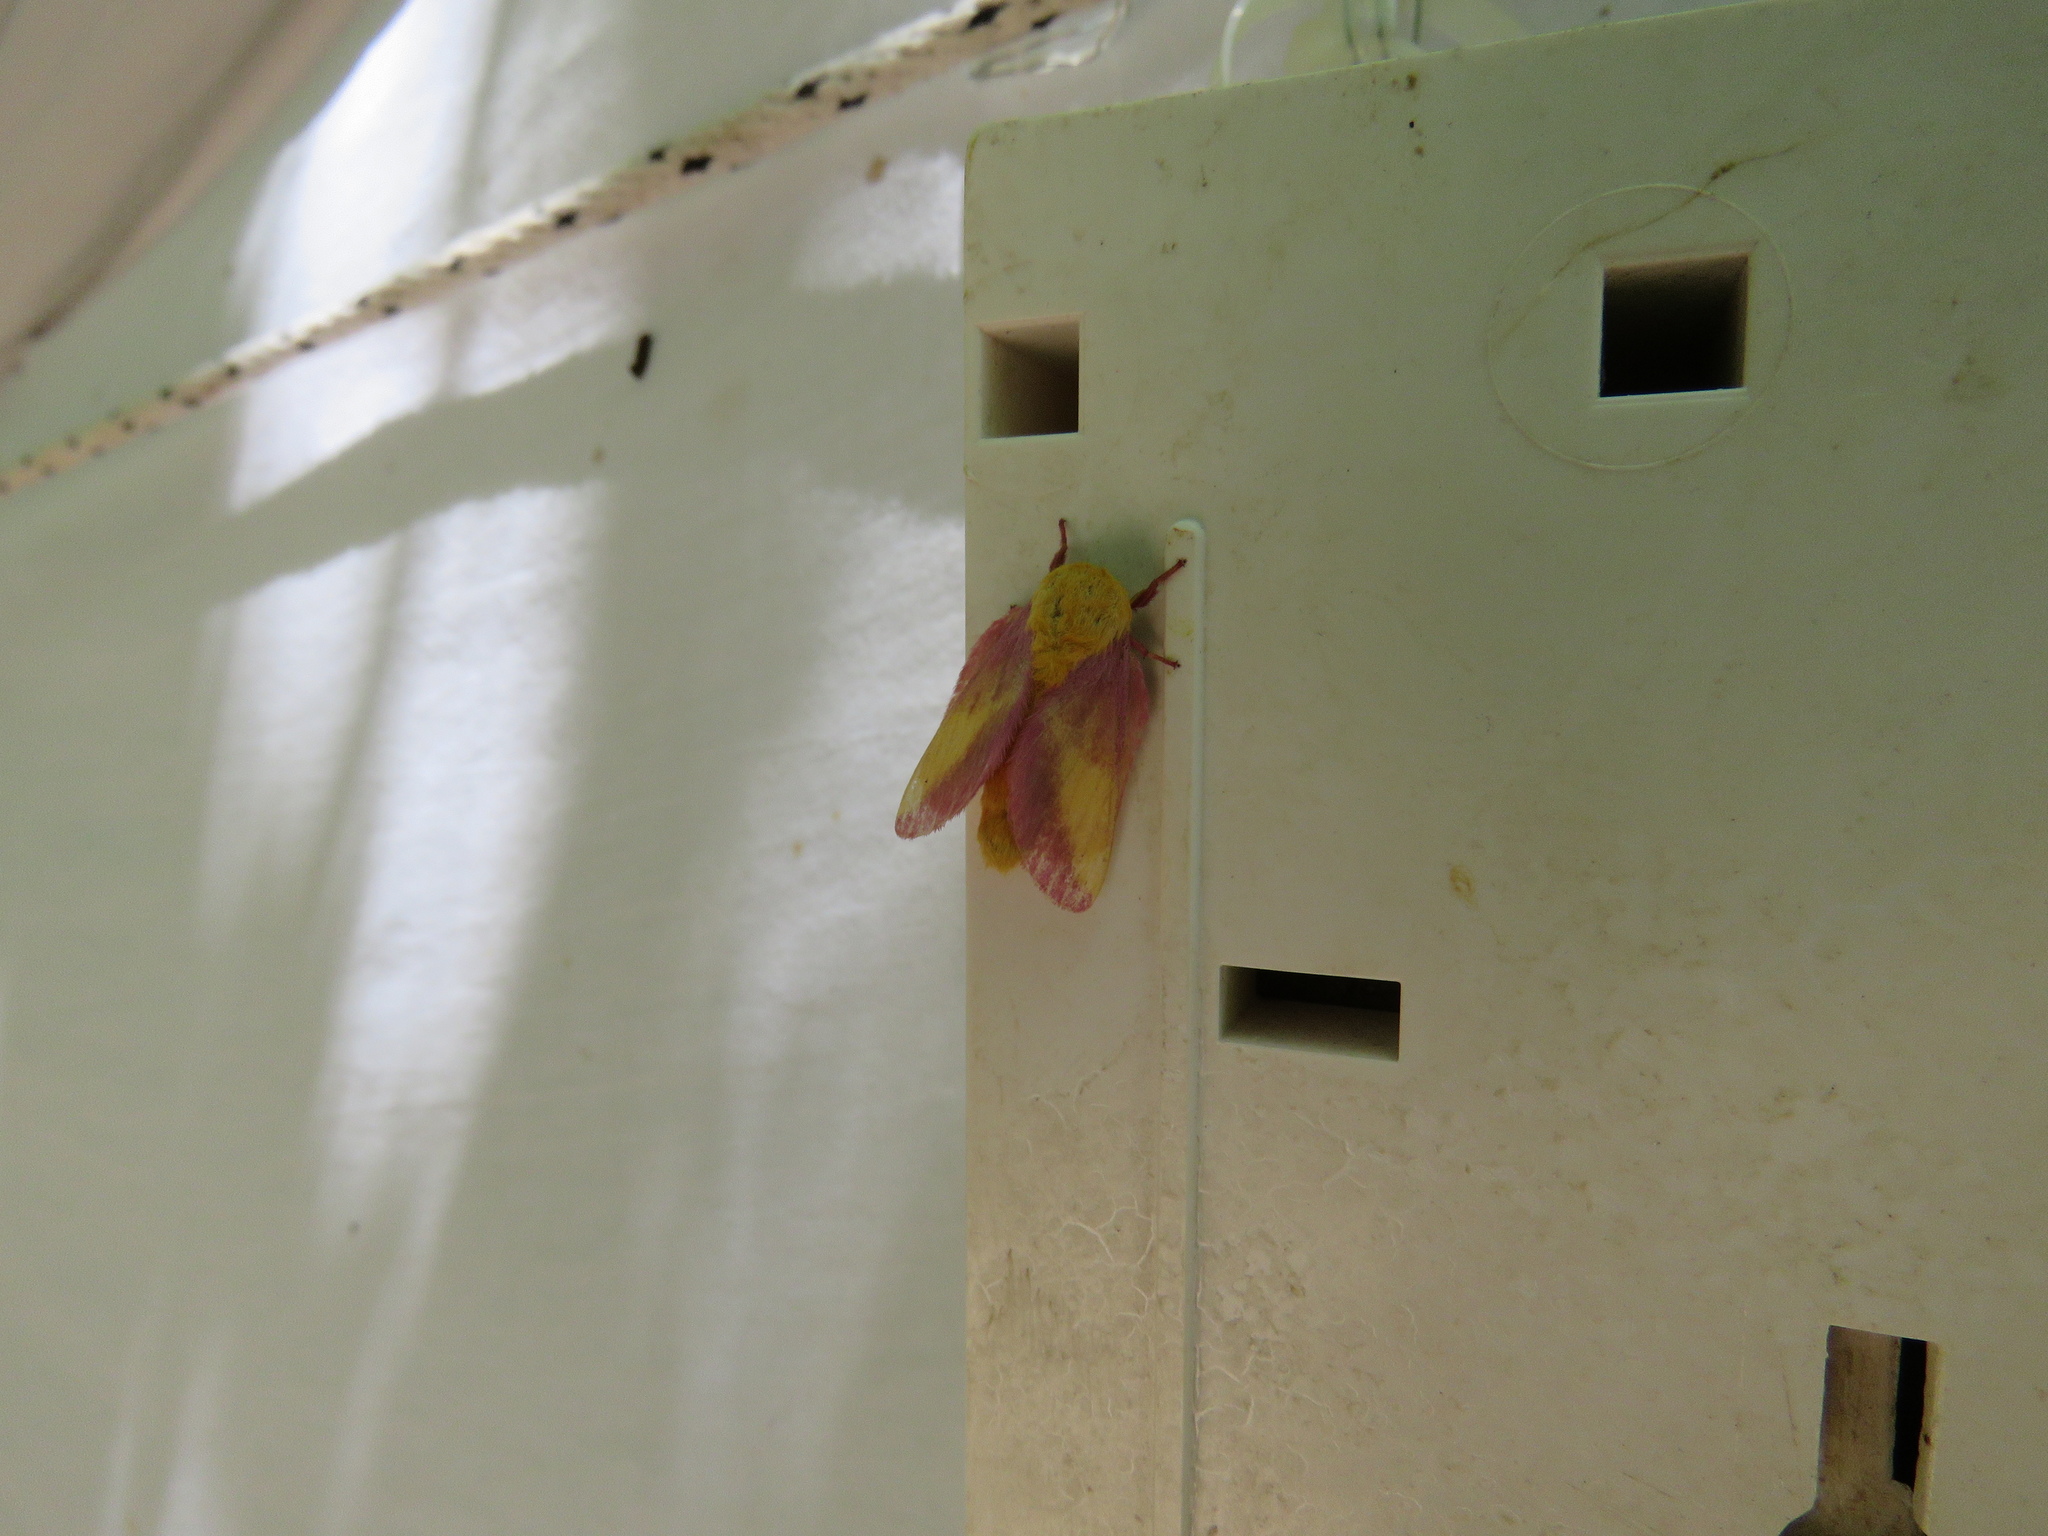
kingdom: Animalia
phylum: Arthropoda
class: Insecta
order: Lepidoptera
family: Saturniidae
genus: Dryocampa
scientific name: Dryocampa rubicunda
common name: Rosy maple moth
